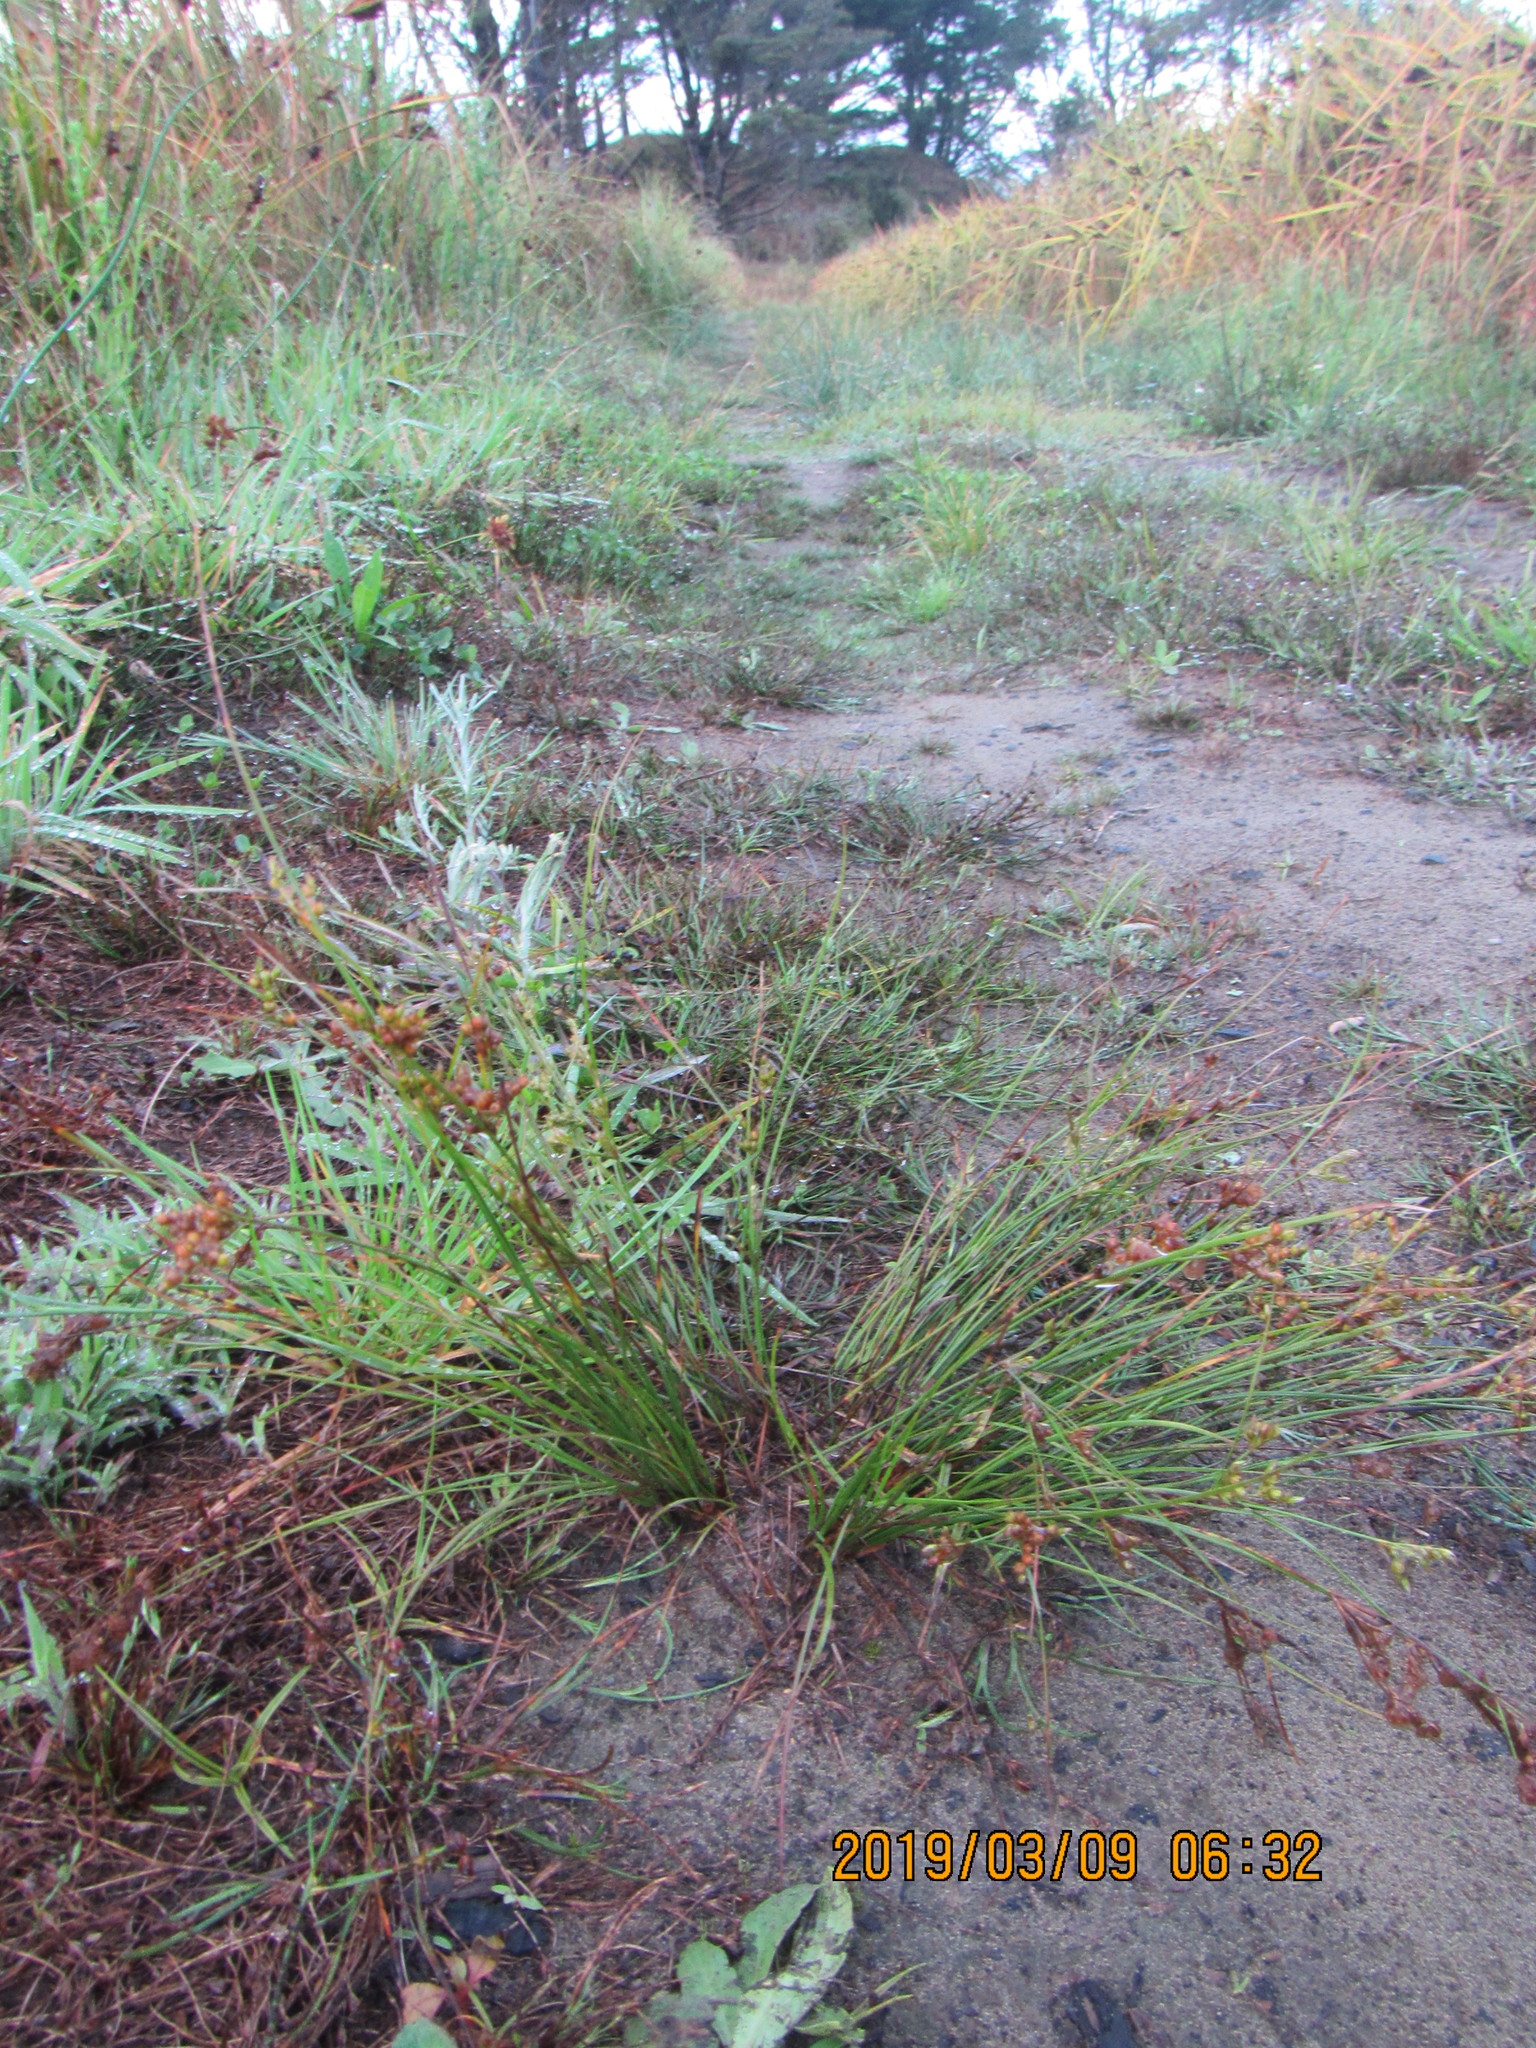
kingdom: Plantae
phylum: Tracheophyta
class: Liliopsida
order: Poales
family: Juncaceae
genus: Juncus
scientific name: Juncus tenuis
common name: Slender rush
